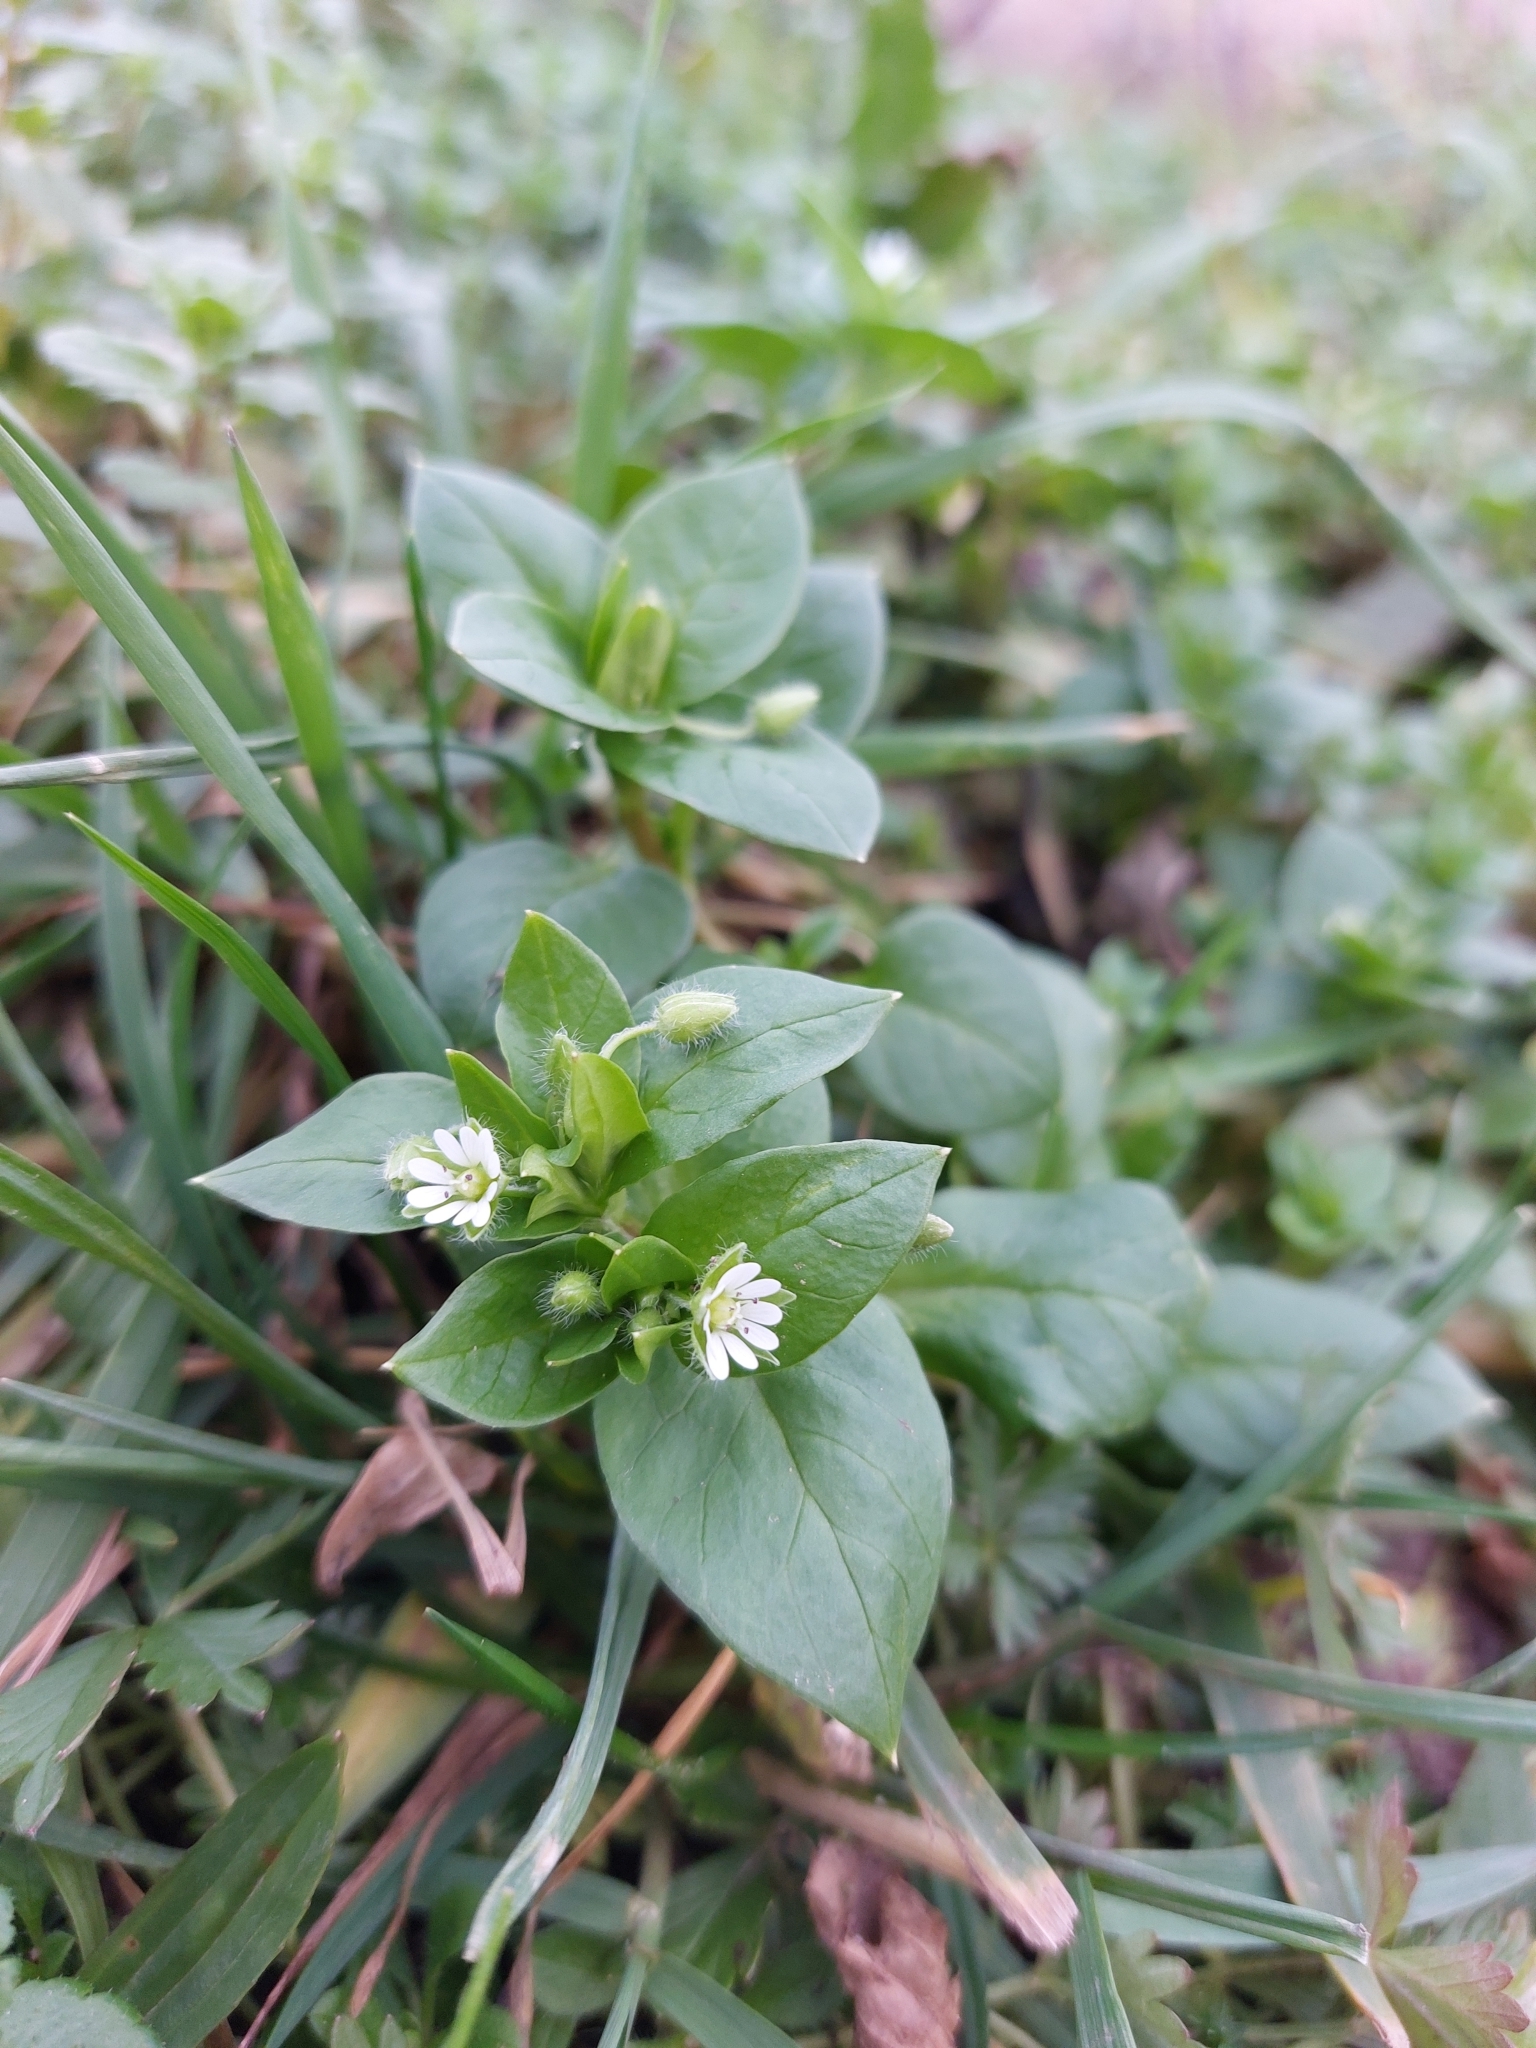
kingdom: Plantae
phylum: Tracheophyta
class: Magnoliopsida
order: Caryophyllales
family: Caryophyllaceae
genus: Stellaria
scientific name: Stellaria media
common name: Common chickweed
